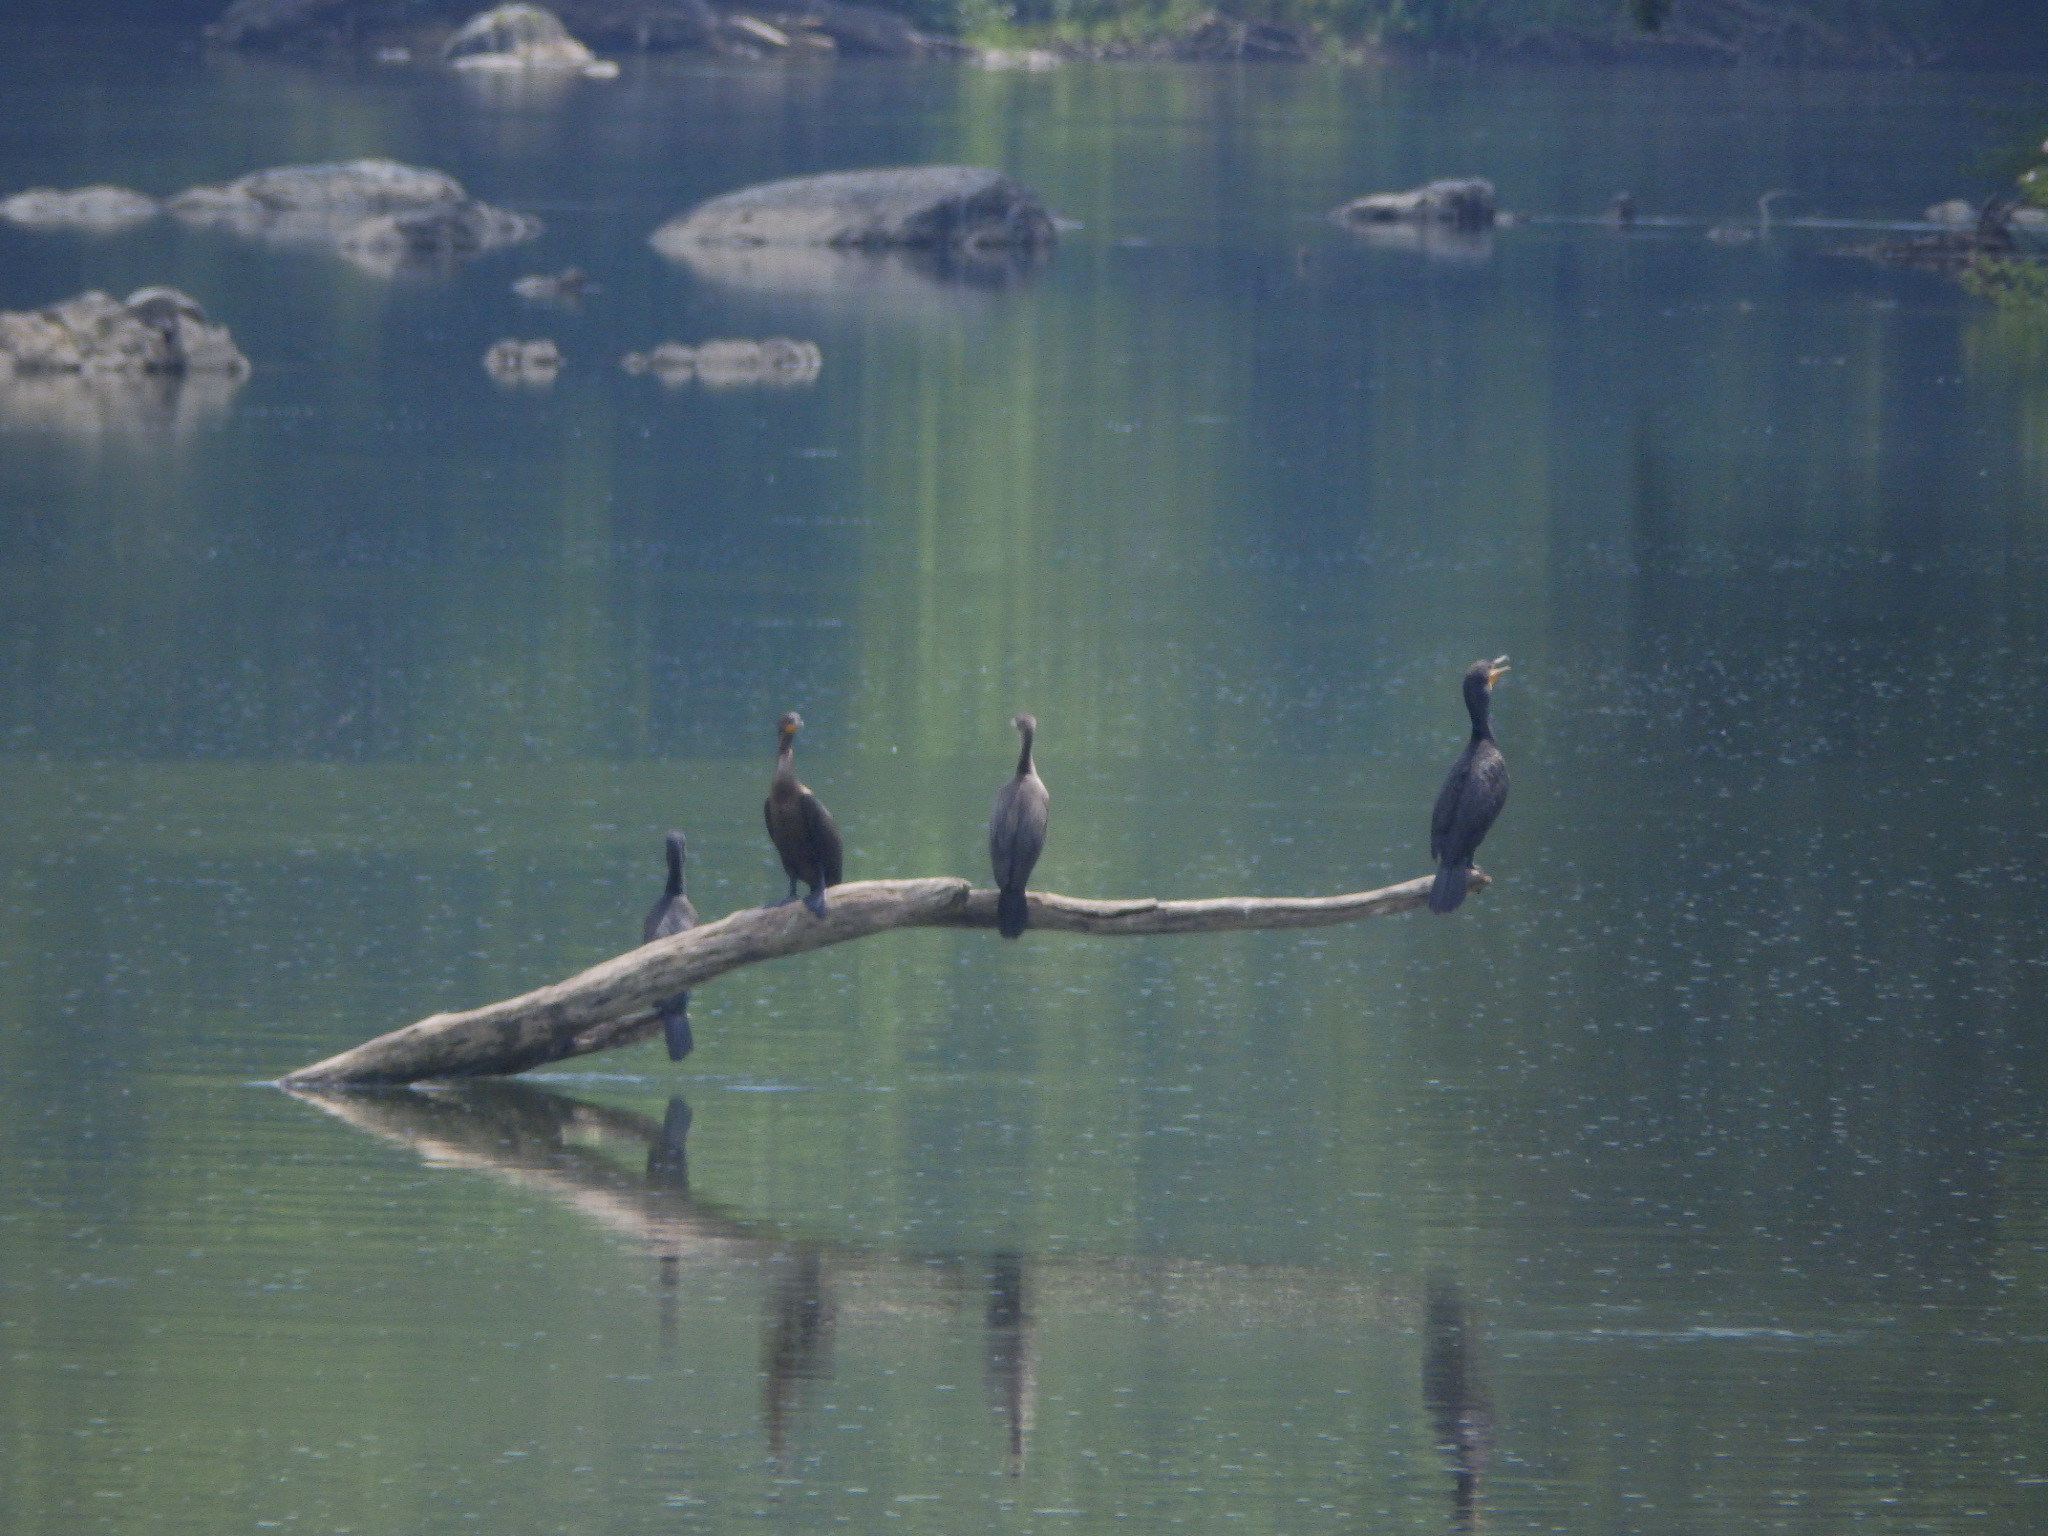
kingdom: Animalia
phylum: Chordata
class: Aves
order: Suliformes
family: Phalacrocoracidae
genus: Phalacrocorax
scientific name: Phalacrocorax auritus
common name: Double-crested cormorant
